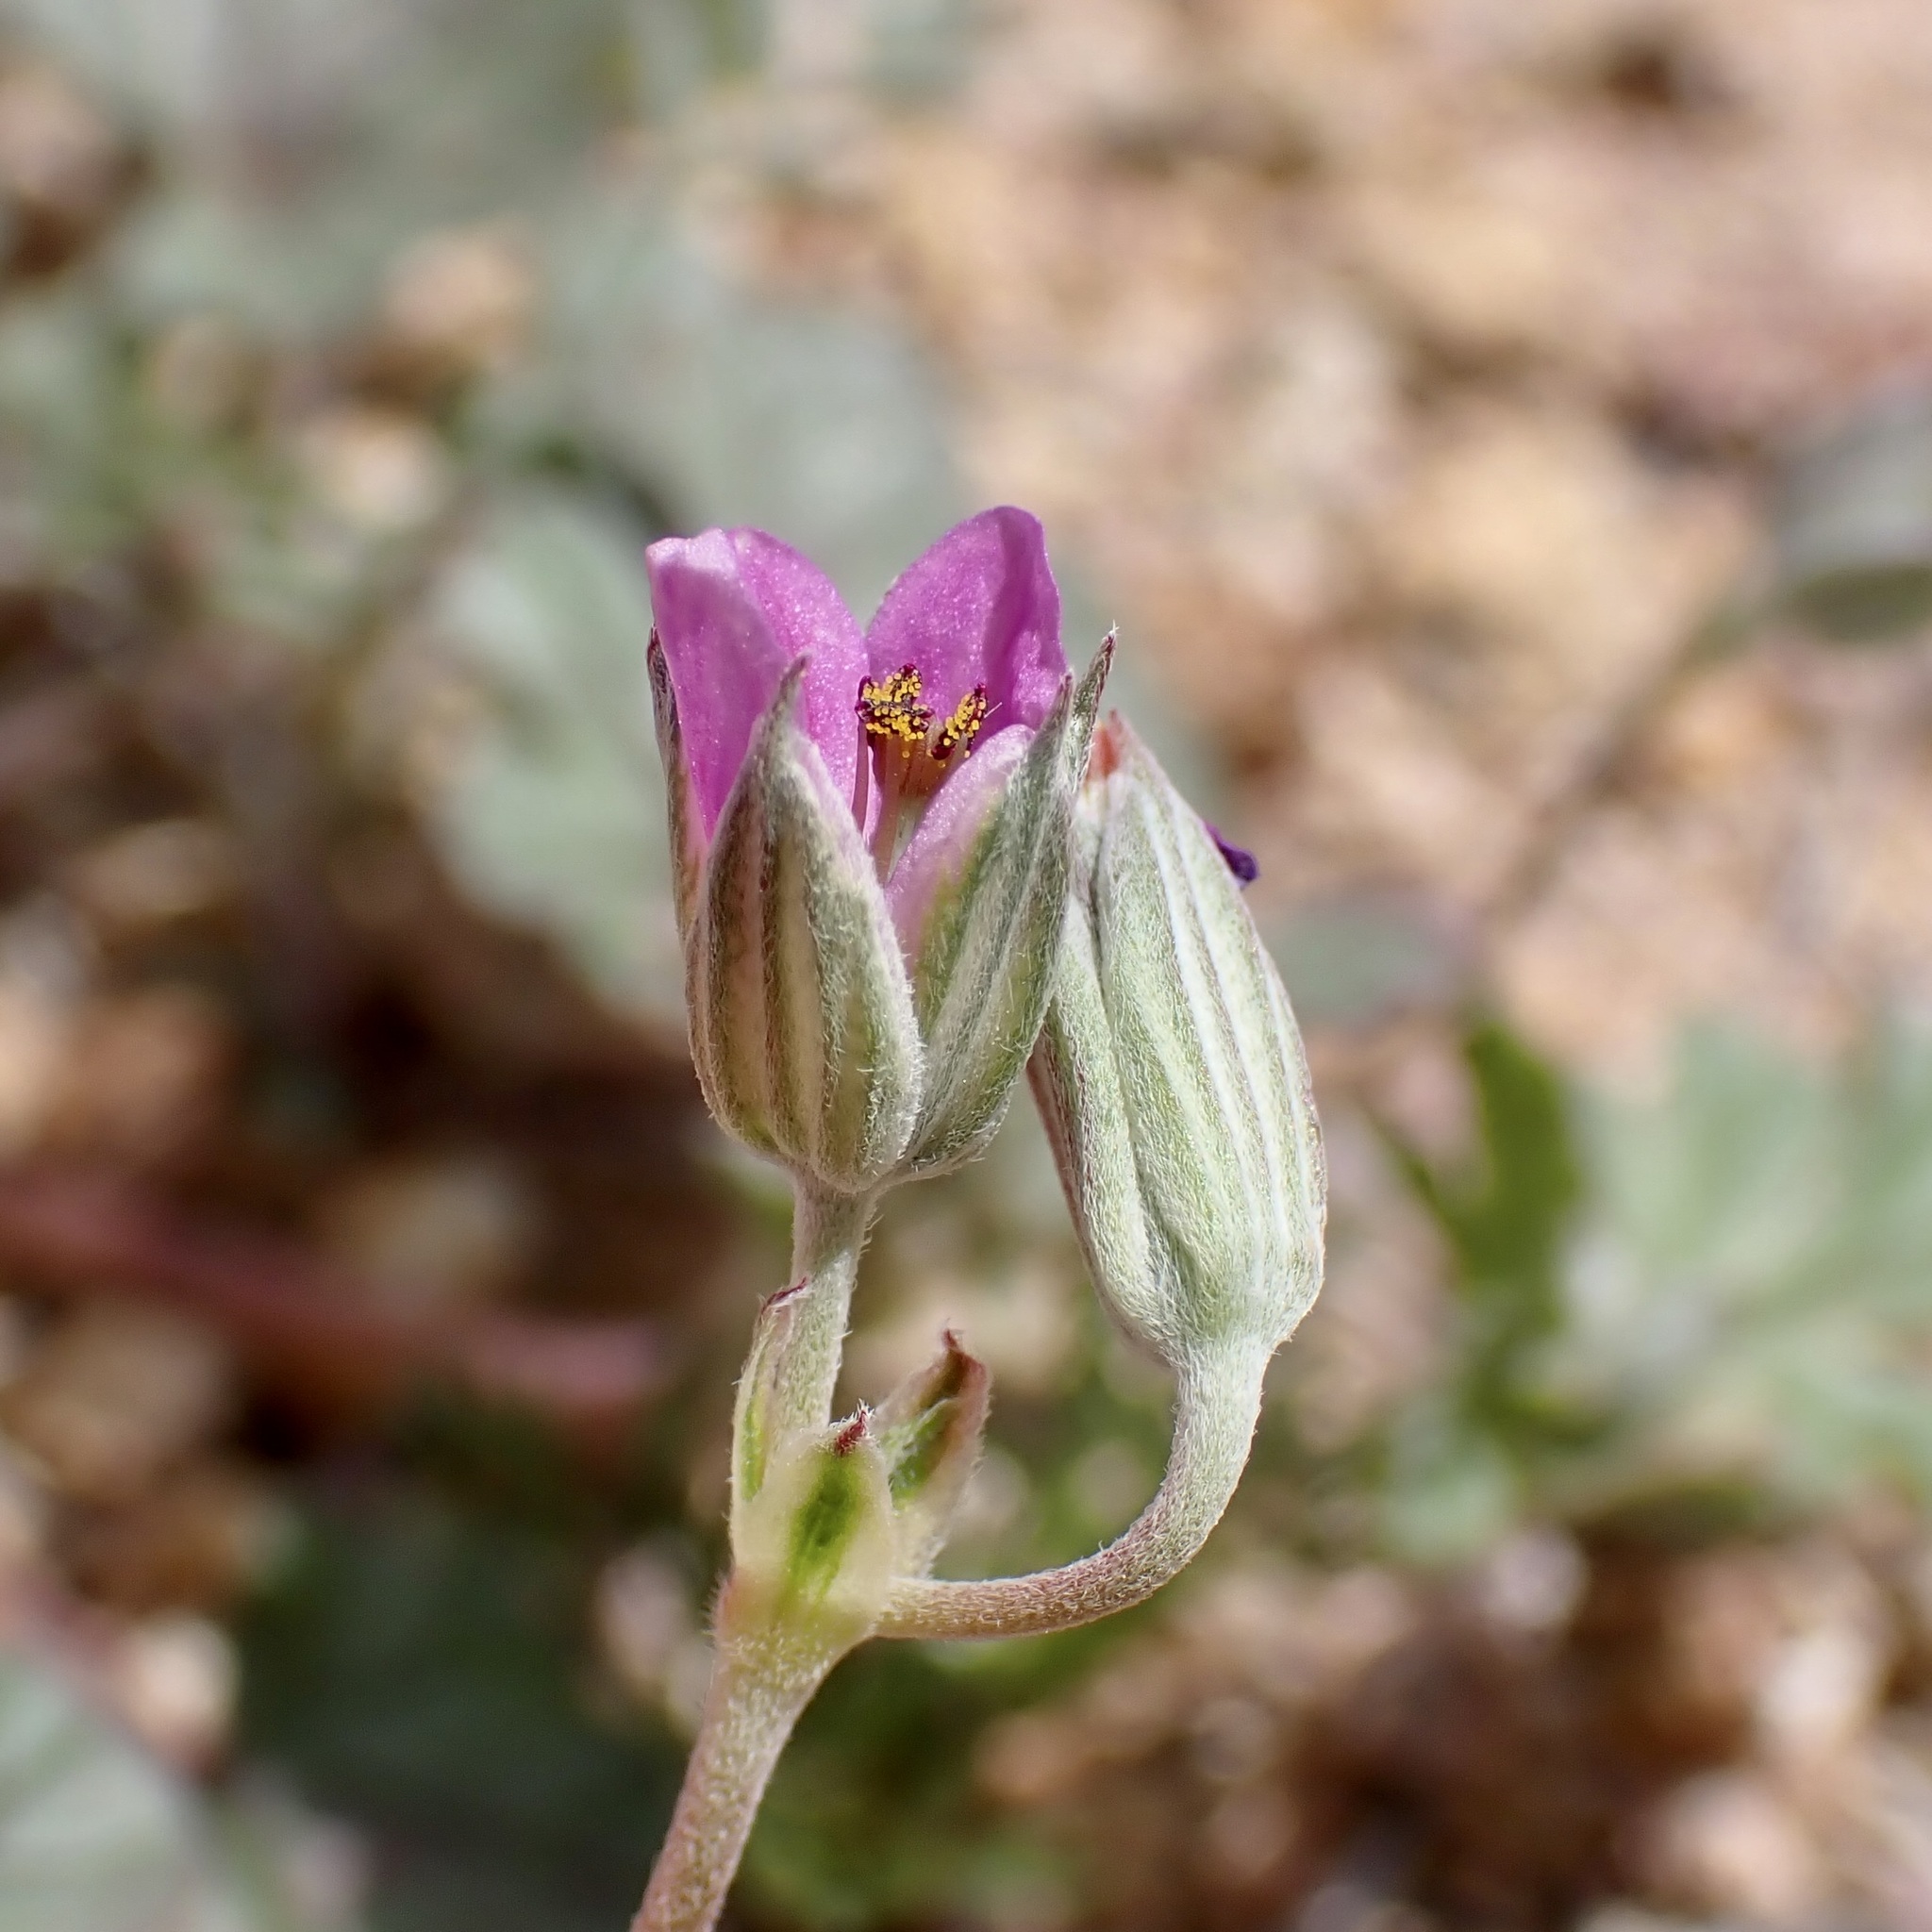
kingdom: Plantae
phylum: Tracheophyta
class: Magnoliopsida
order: Geraniales
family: Geraniaceae
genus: Erodium
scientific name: Erodium texanum
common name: Texas stork's-bill
